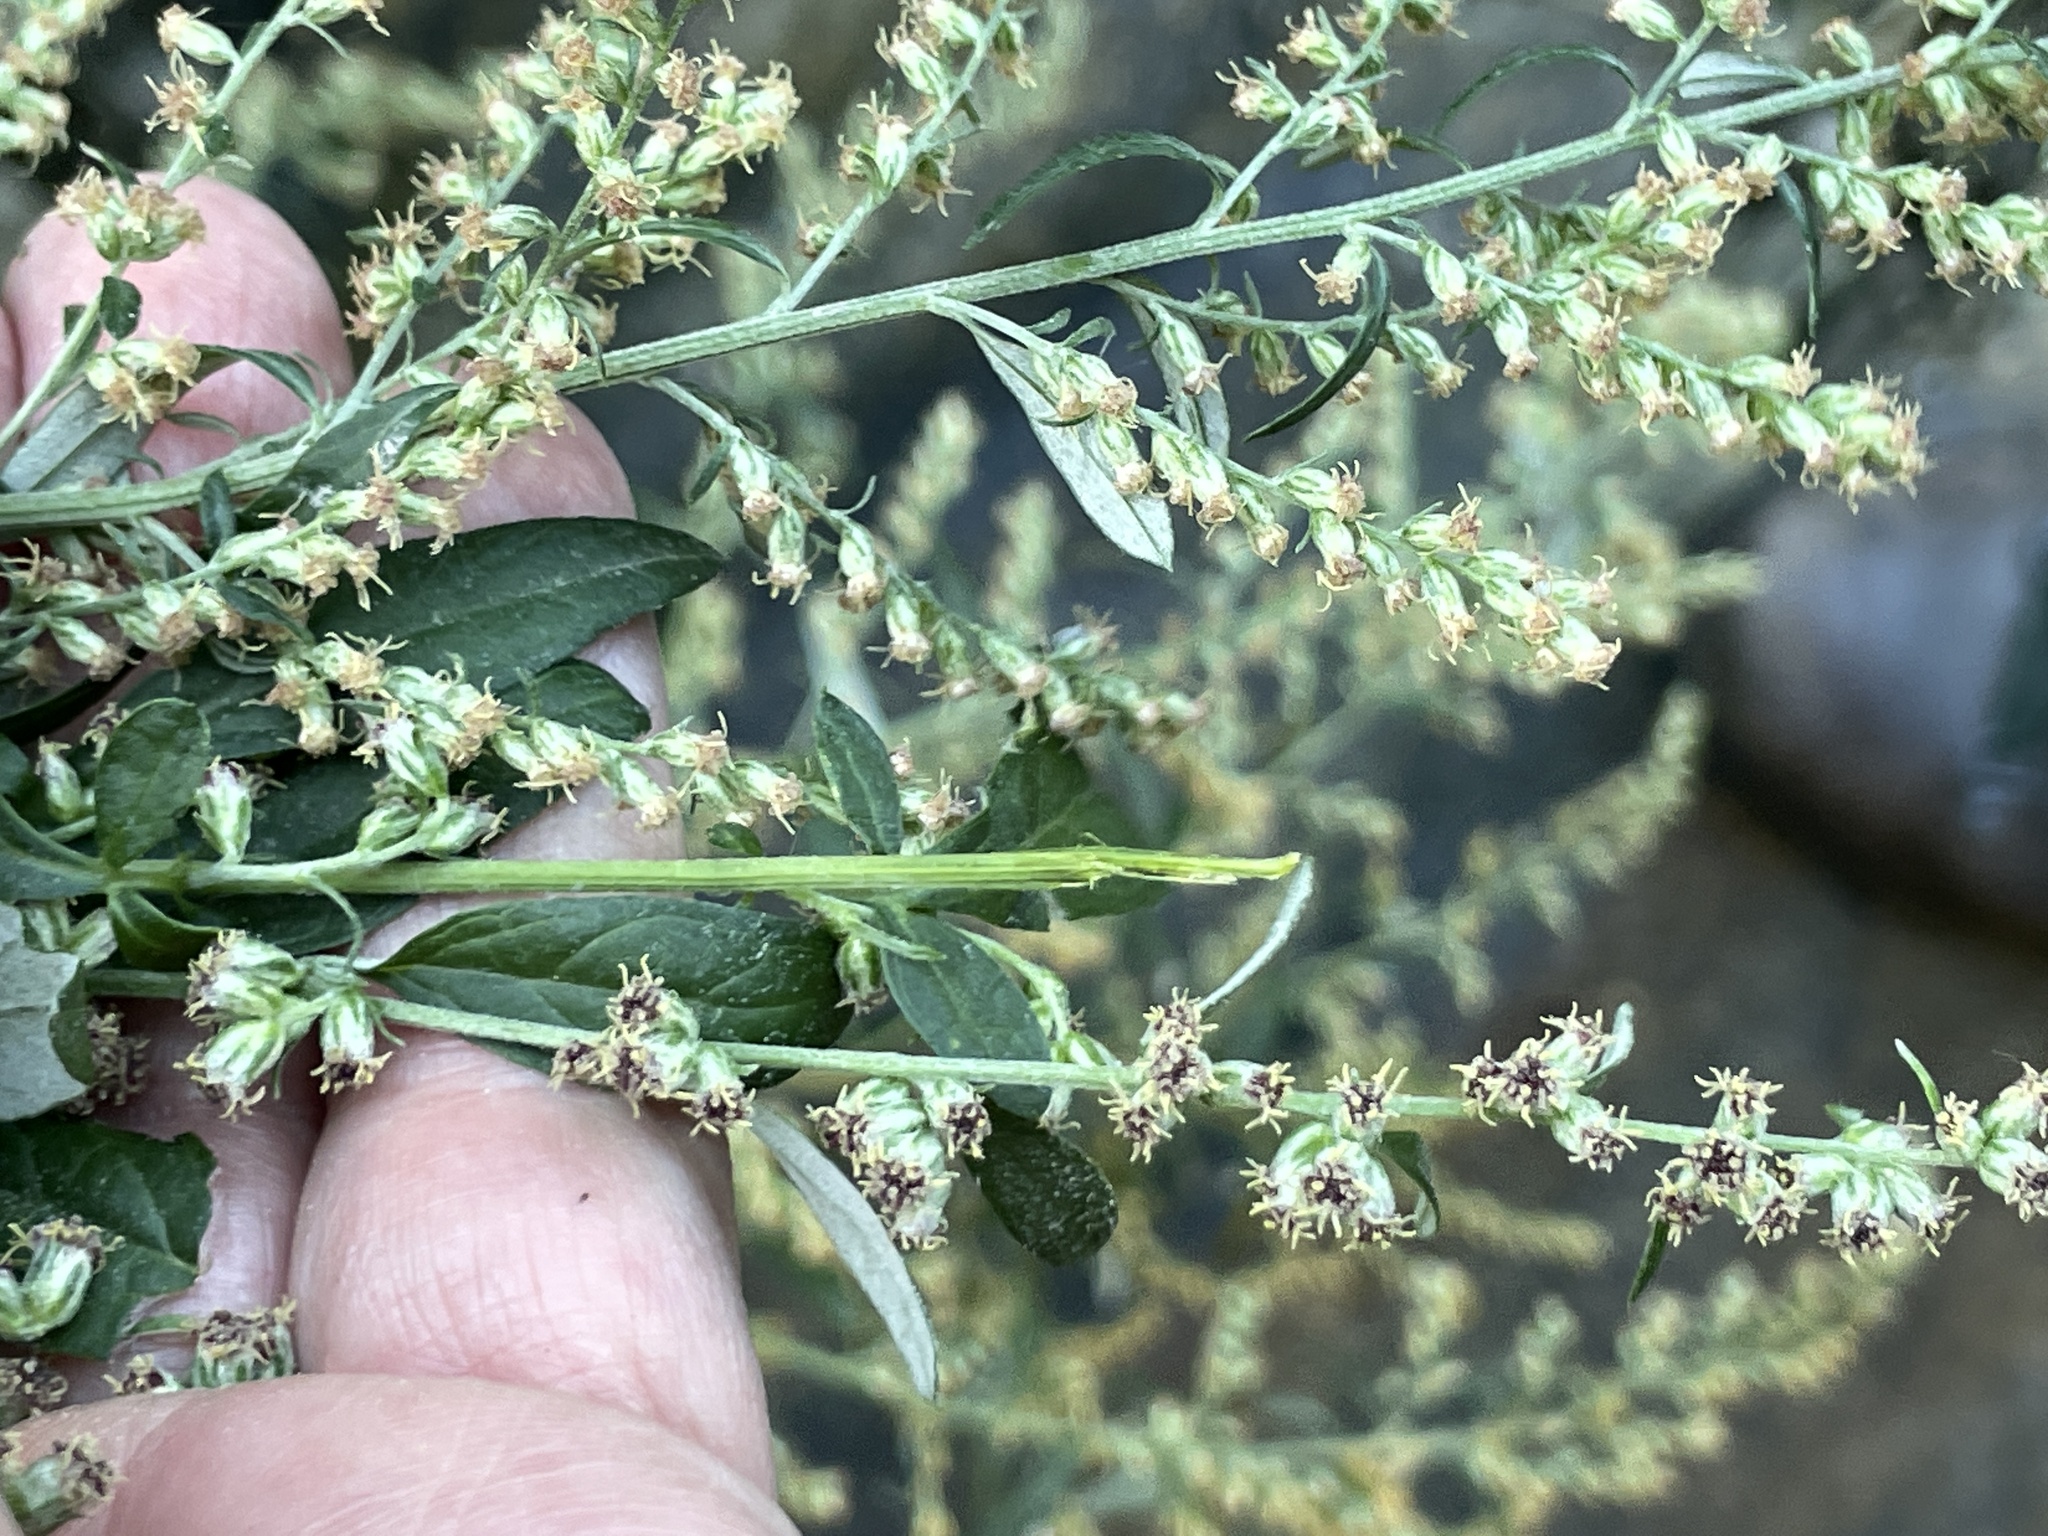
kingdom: Plantae
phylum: Tracheophyta
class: Magnoliopsida
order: Asterales
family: Asteraceae
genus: Artemisia
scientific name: Artemisia vulgaris
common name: Mugwort
